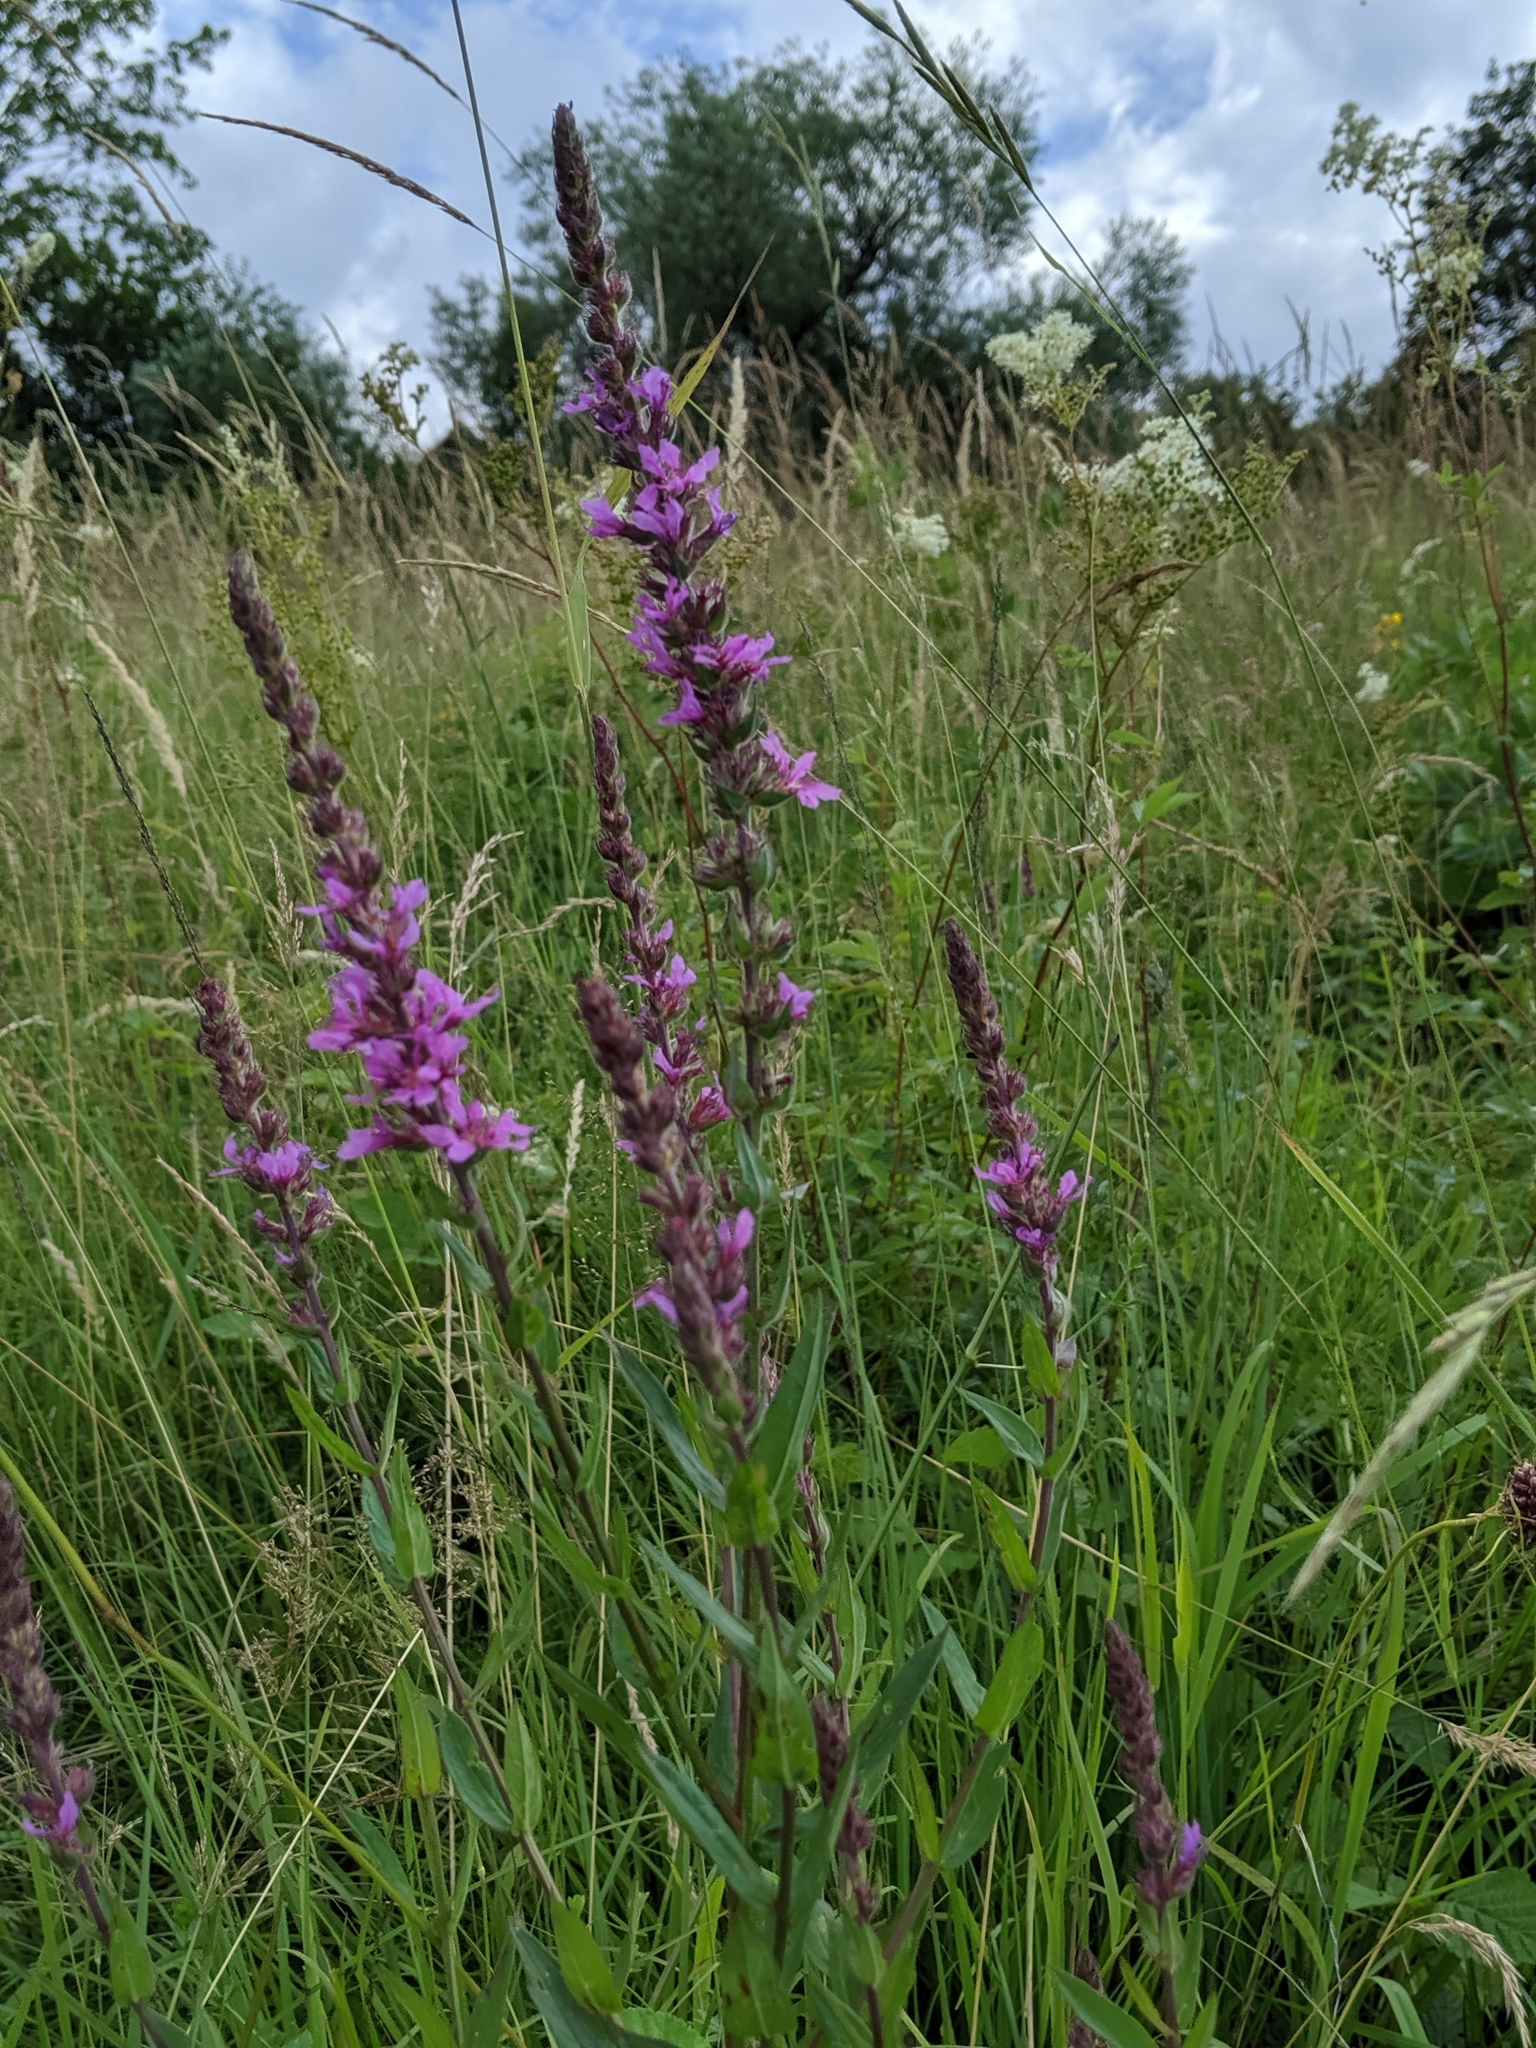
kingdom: Plantae
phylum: Tracheophyta
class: Magnoliopsida
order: Myrtales
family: Lythraceae
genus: Lythrum
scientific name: Lythrum salicaria
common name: Purple loosestrife
